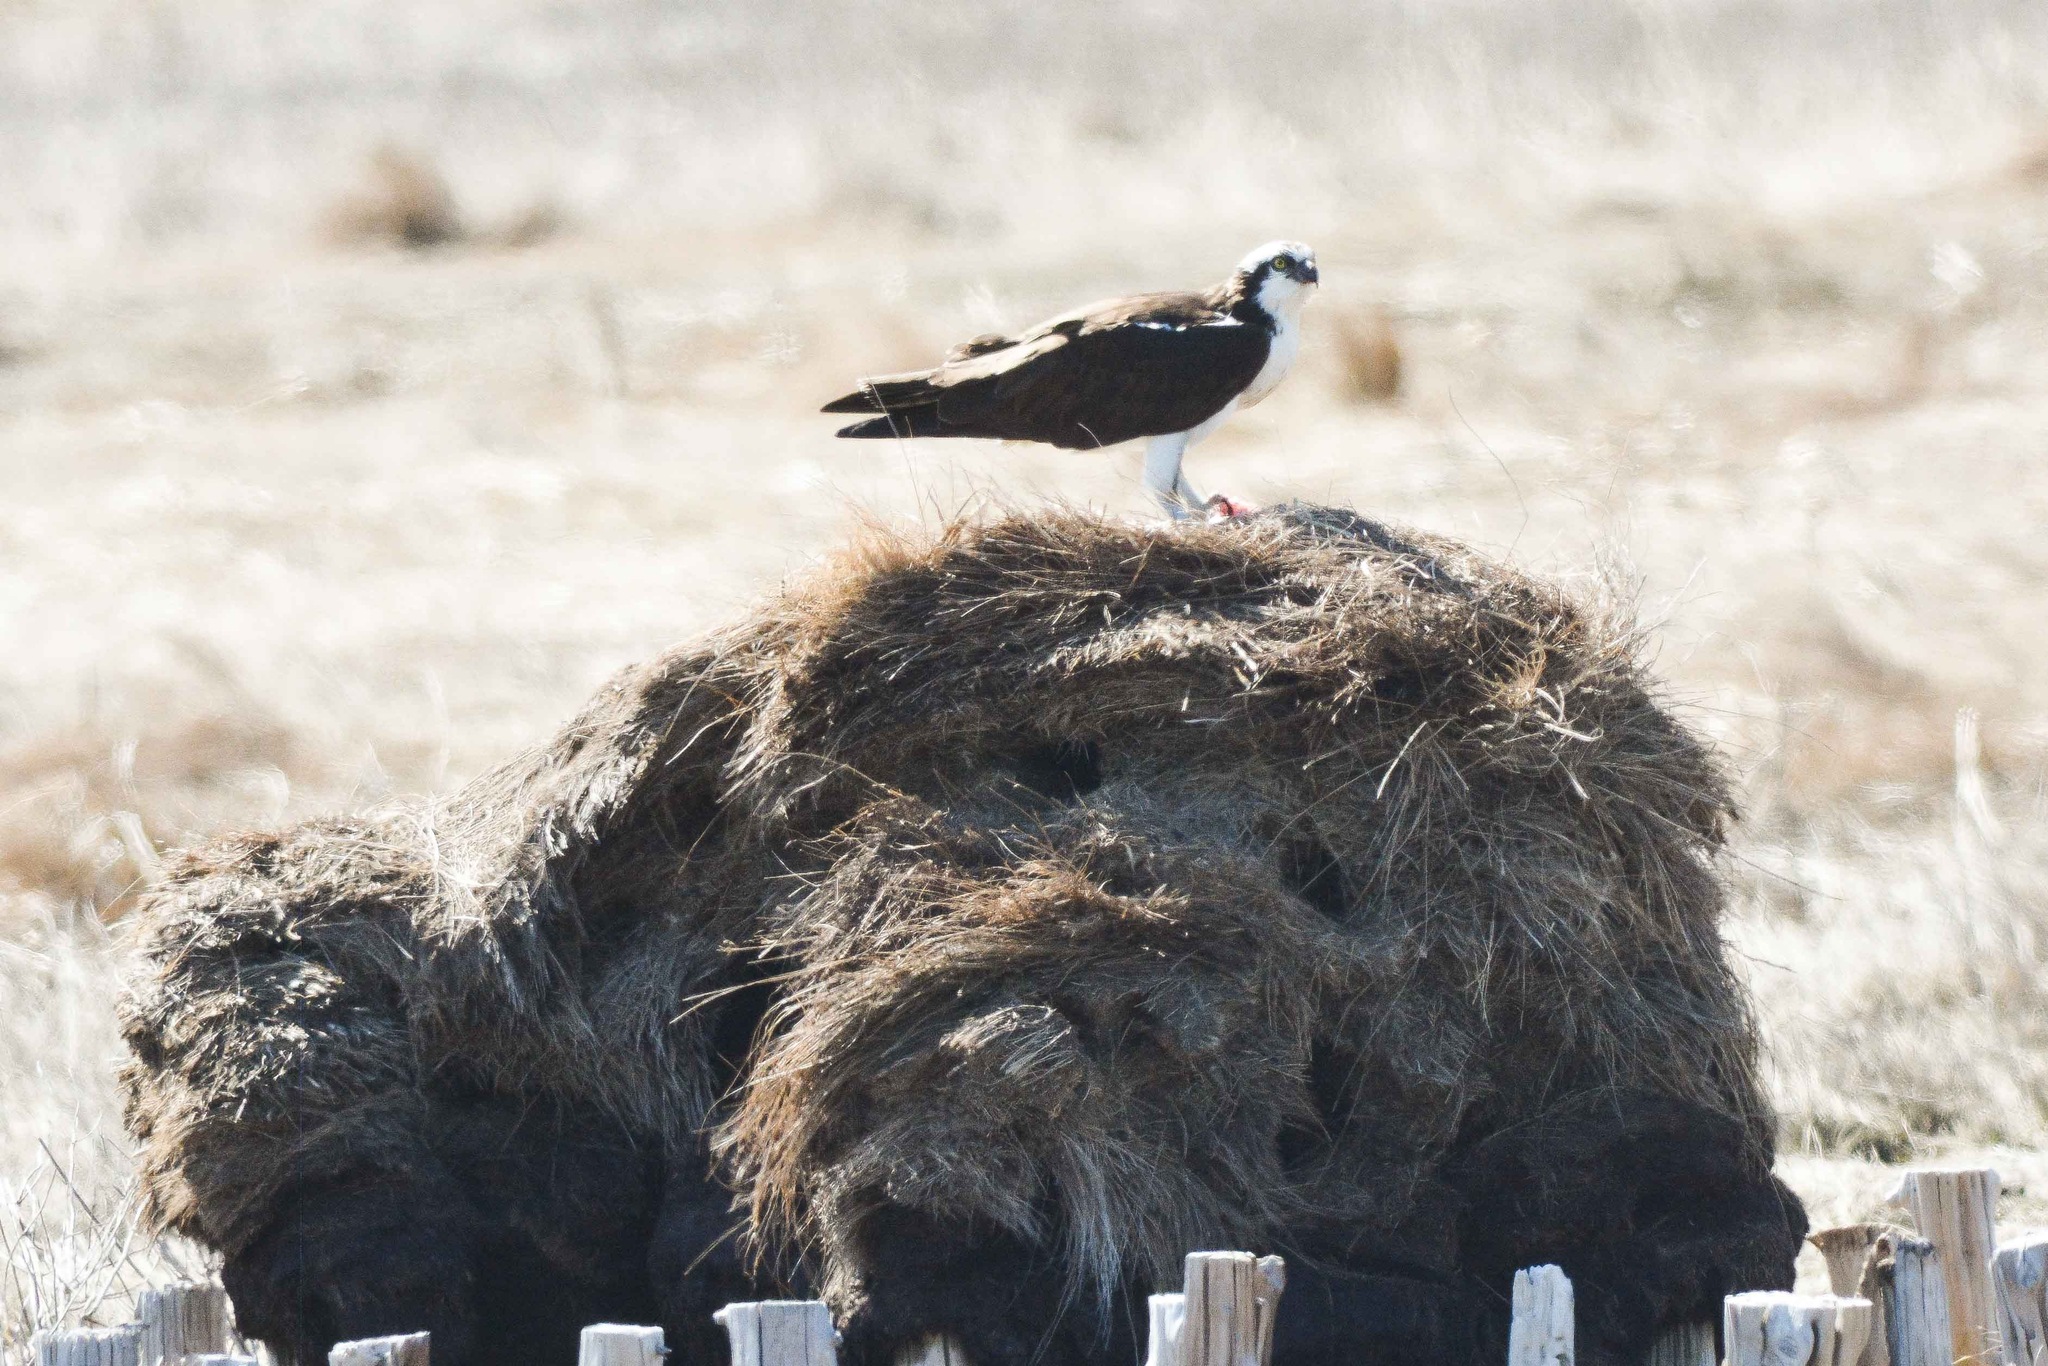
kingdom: Animalia
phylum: Chordata
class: Aves
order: Accipitriformes
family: Pandionidae
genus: Pandion
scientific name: Pandion haliaetus
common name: Osprey
